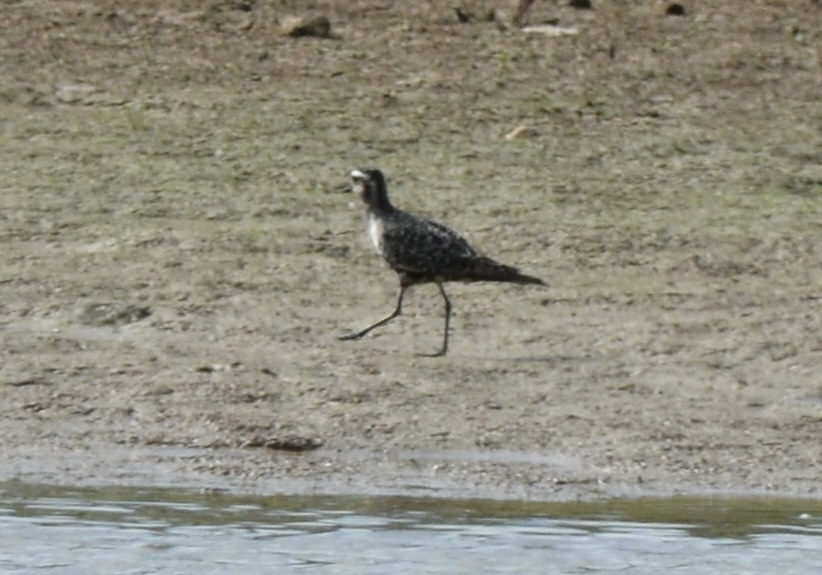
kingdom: Animalia
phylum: Chordata
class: Aves
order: Charadriiformes
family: Charadriidae
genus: Pluvialis
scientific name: Pluvialis dominica
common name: American golden plover
